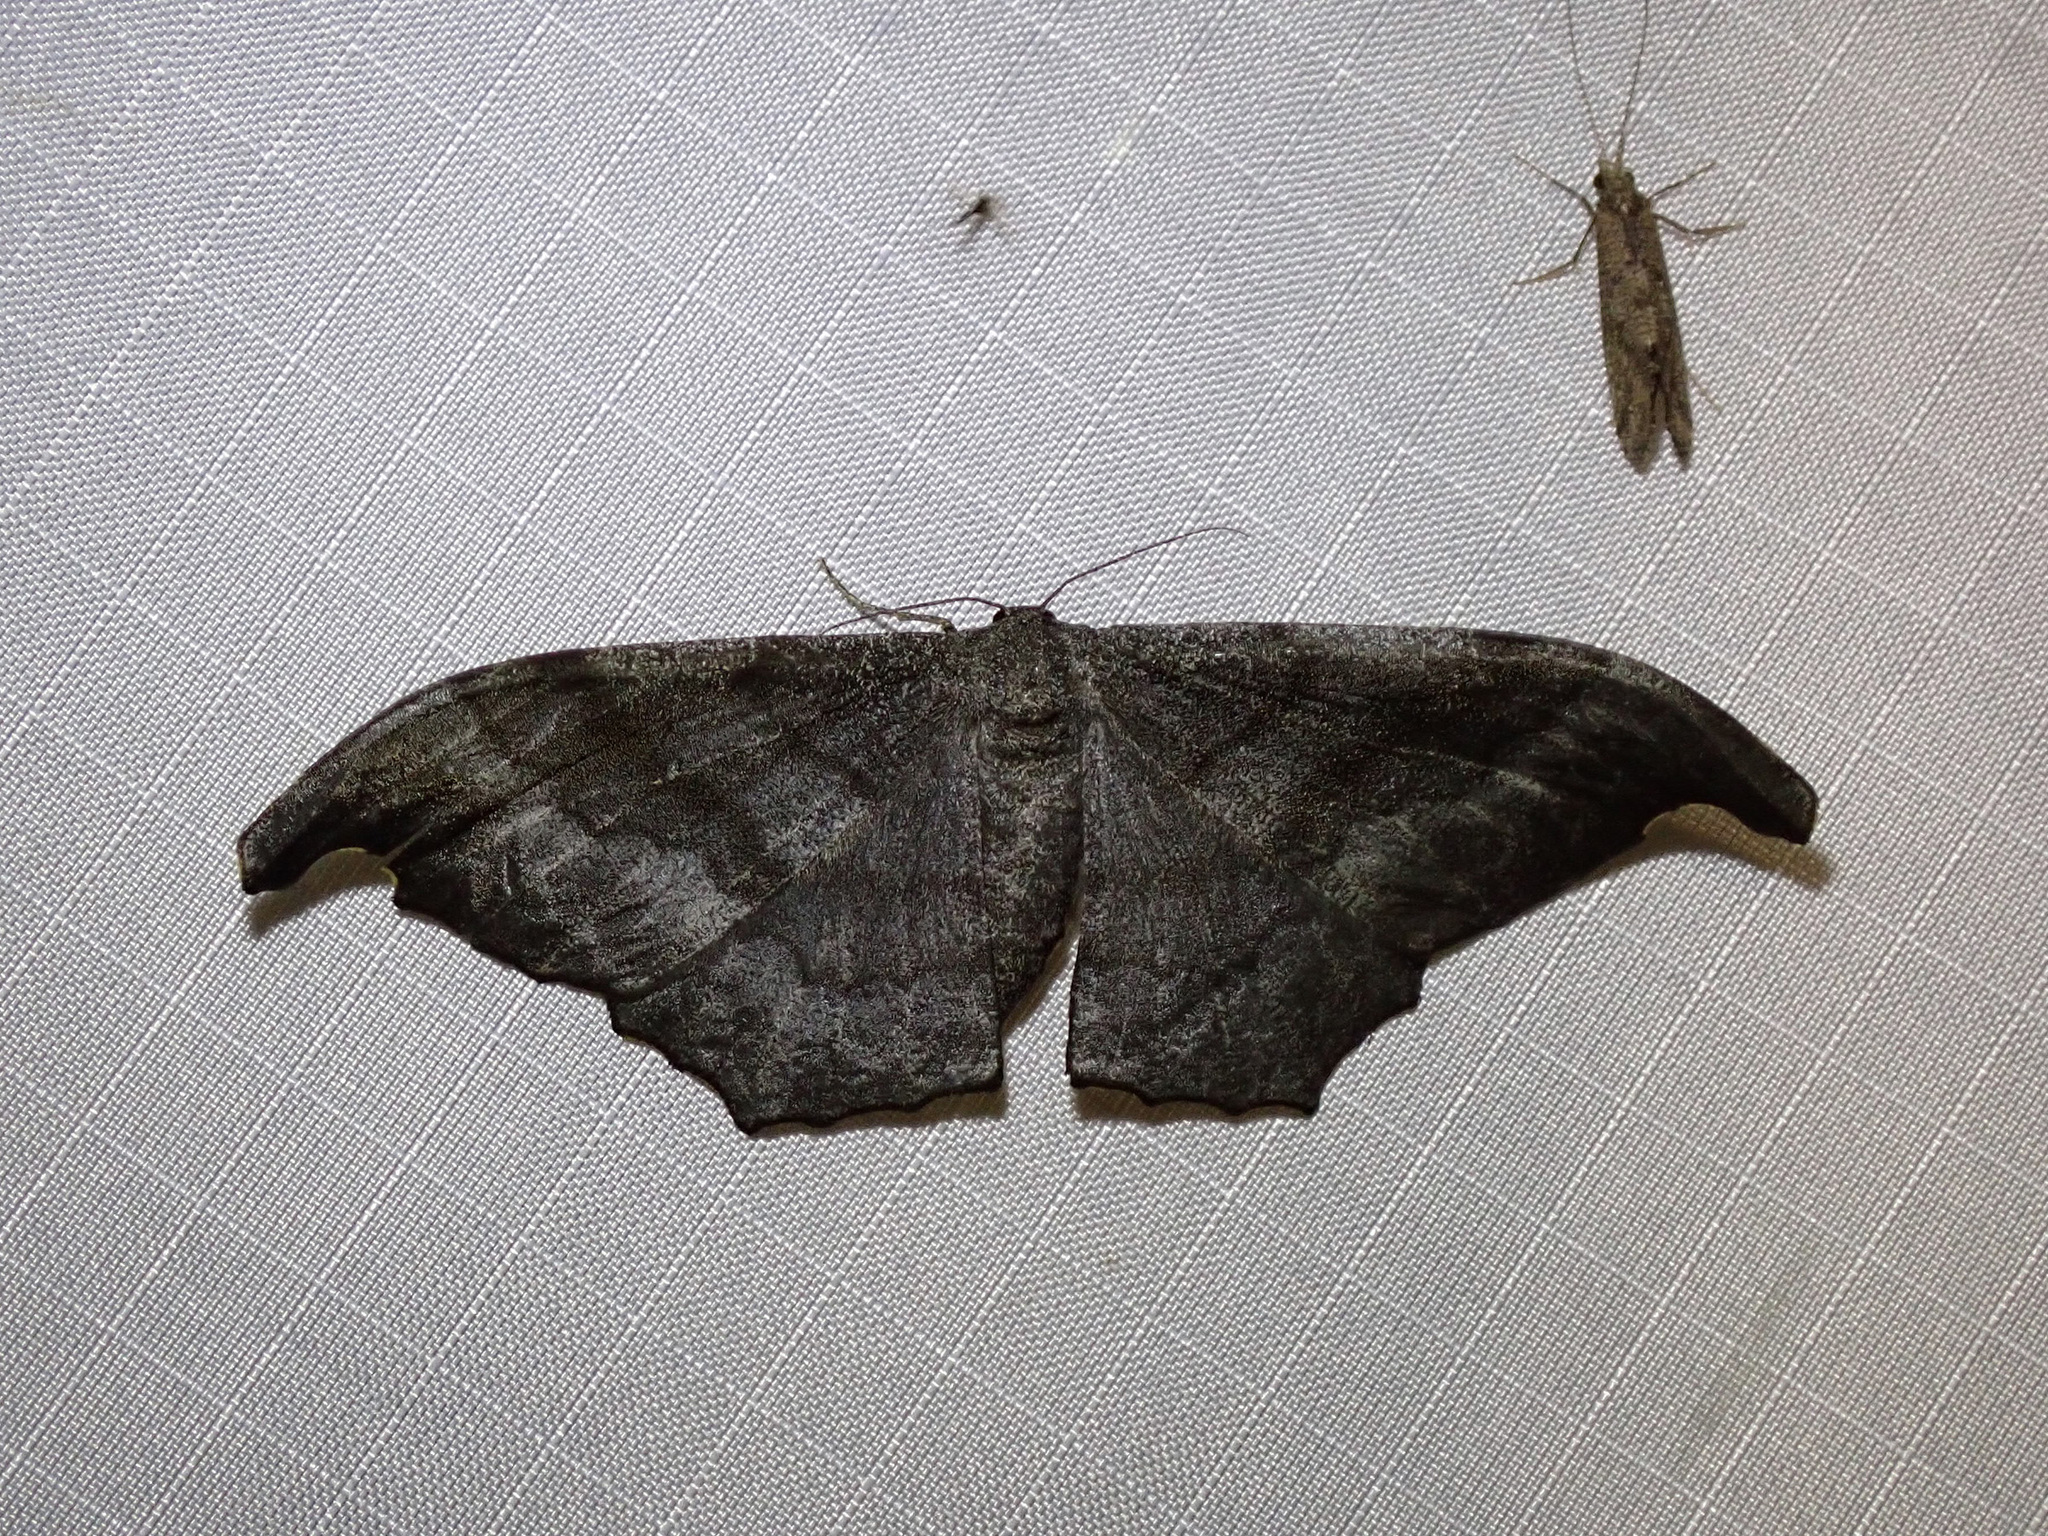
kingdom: Animalia
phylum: Arthropoda
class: Insecta
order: Lepidoptera
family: Geometridae
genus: Hyposidra
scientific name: Hyposidra talaca
